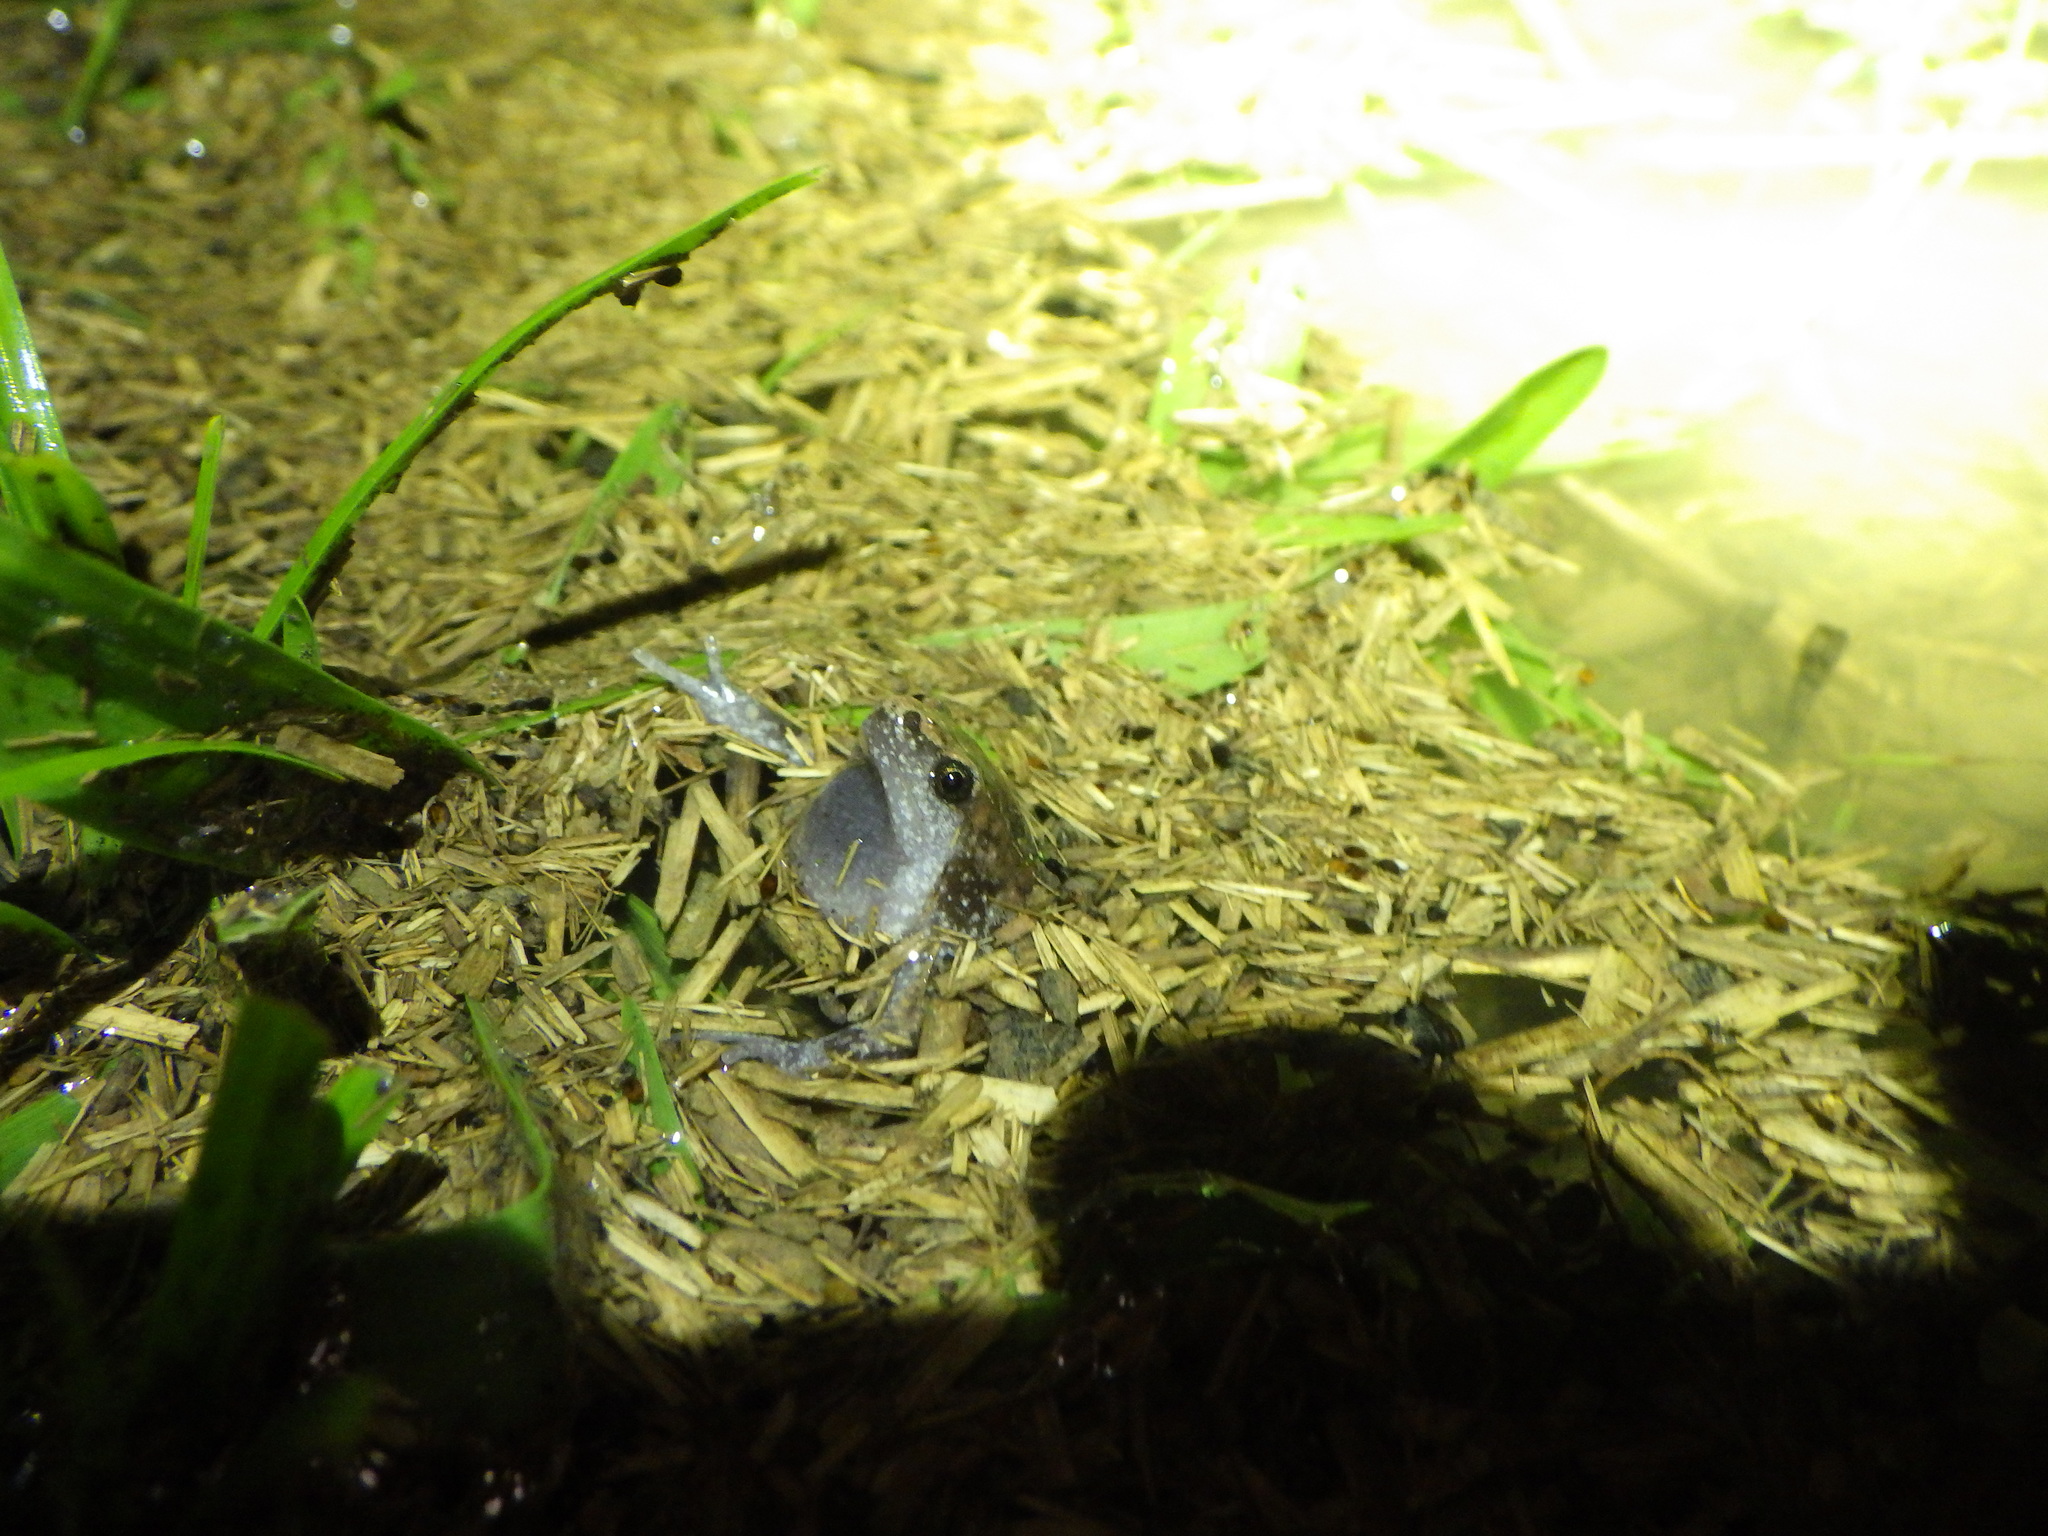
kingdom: Animalia
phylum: Chordata
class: Amphibia
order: Anura
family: Microhylidae
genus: Gastrophryne
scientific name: Gastrophryne carolinensis
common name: Eastern narrowmouth toad
